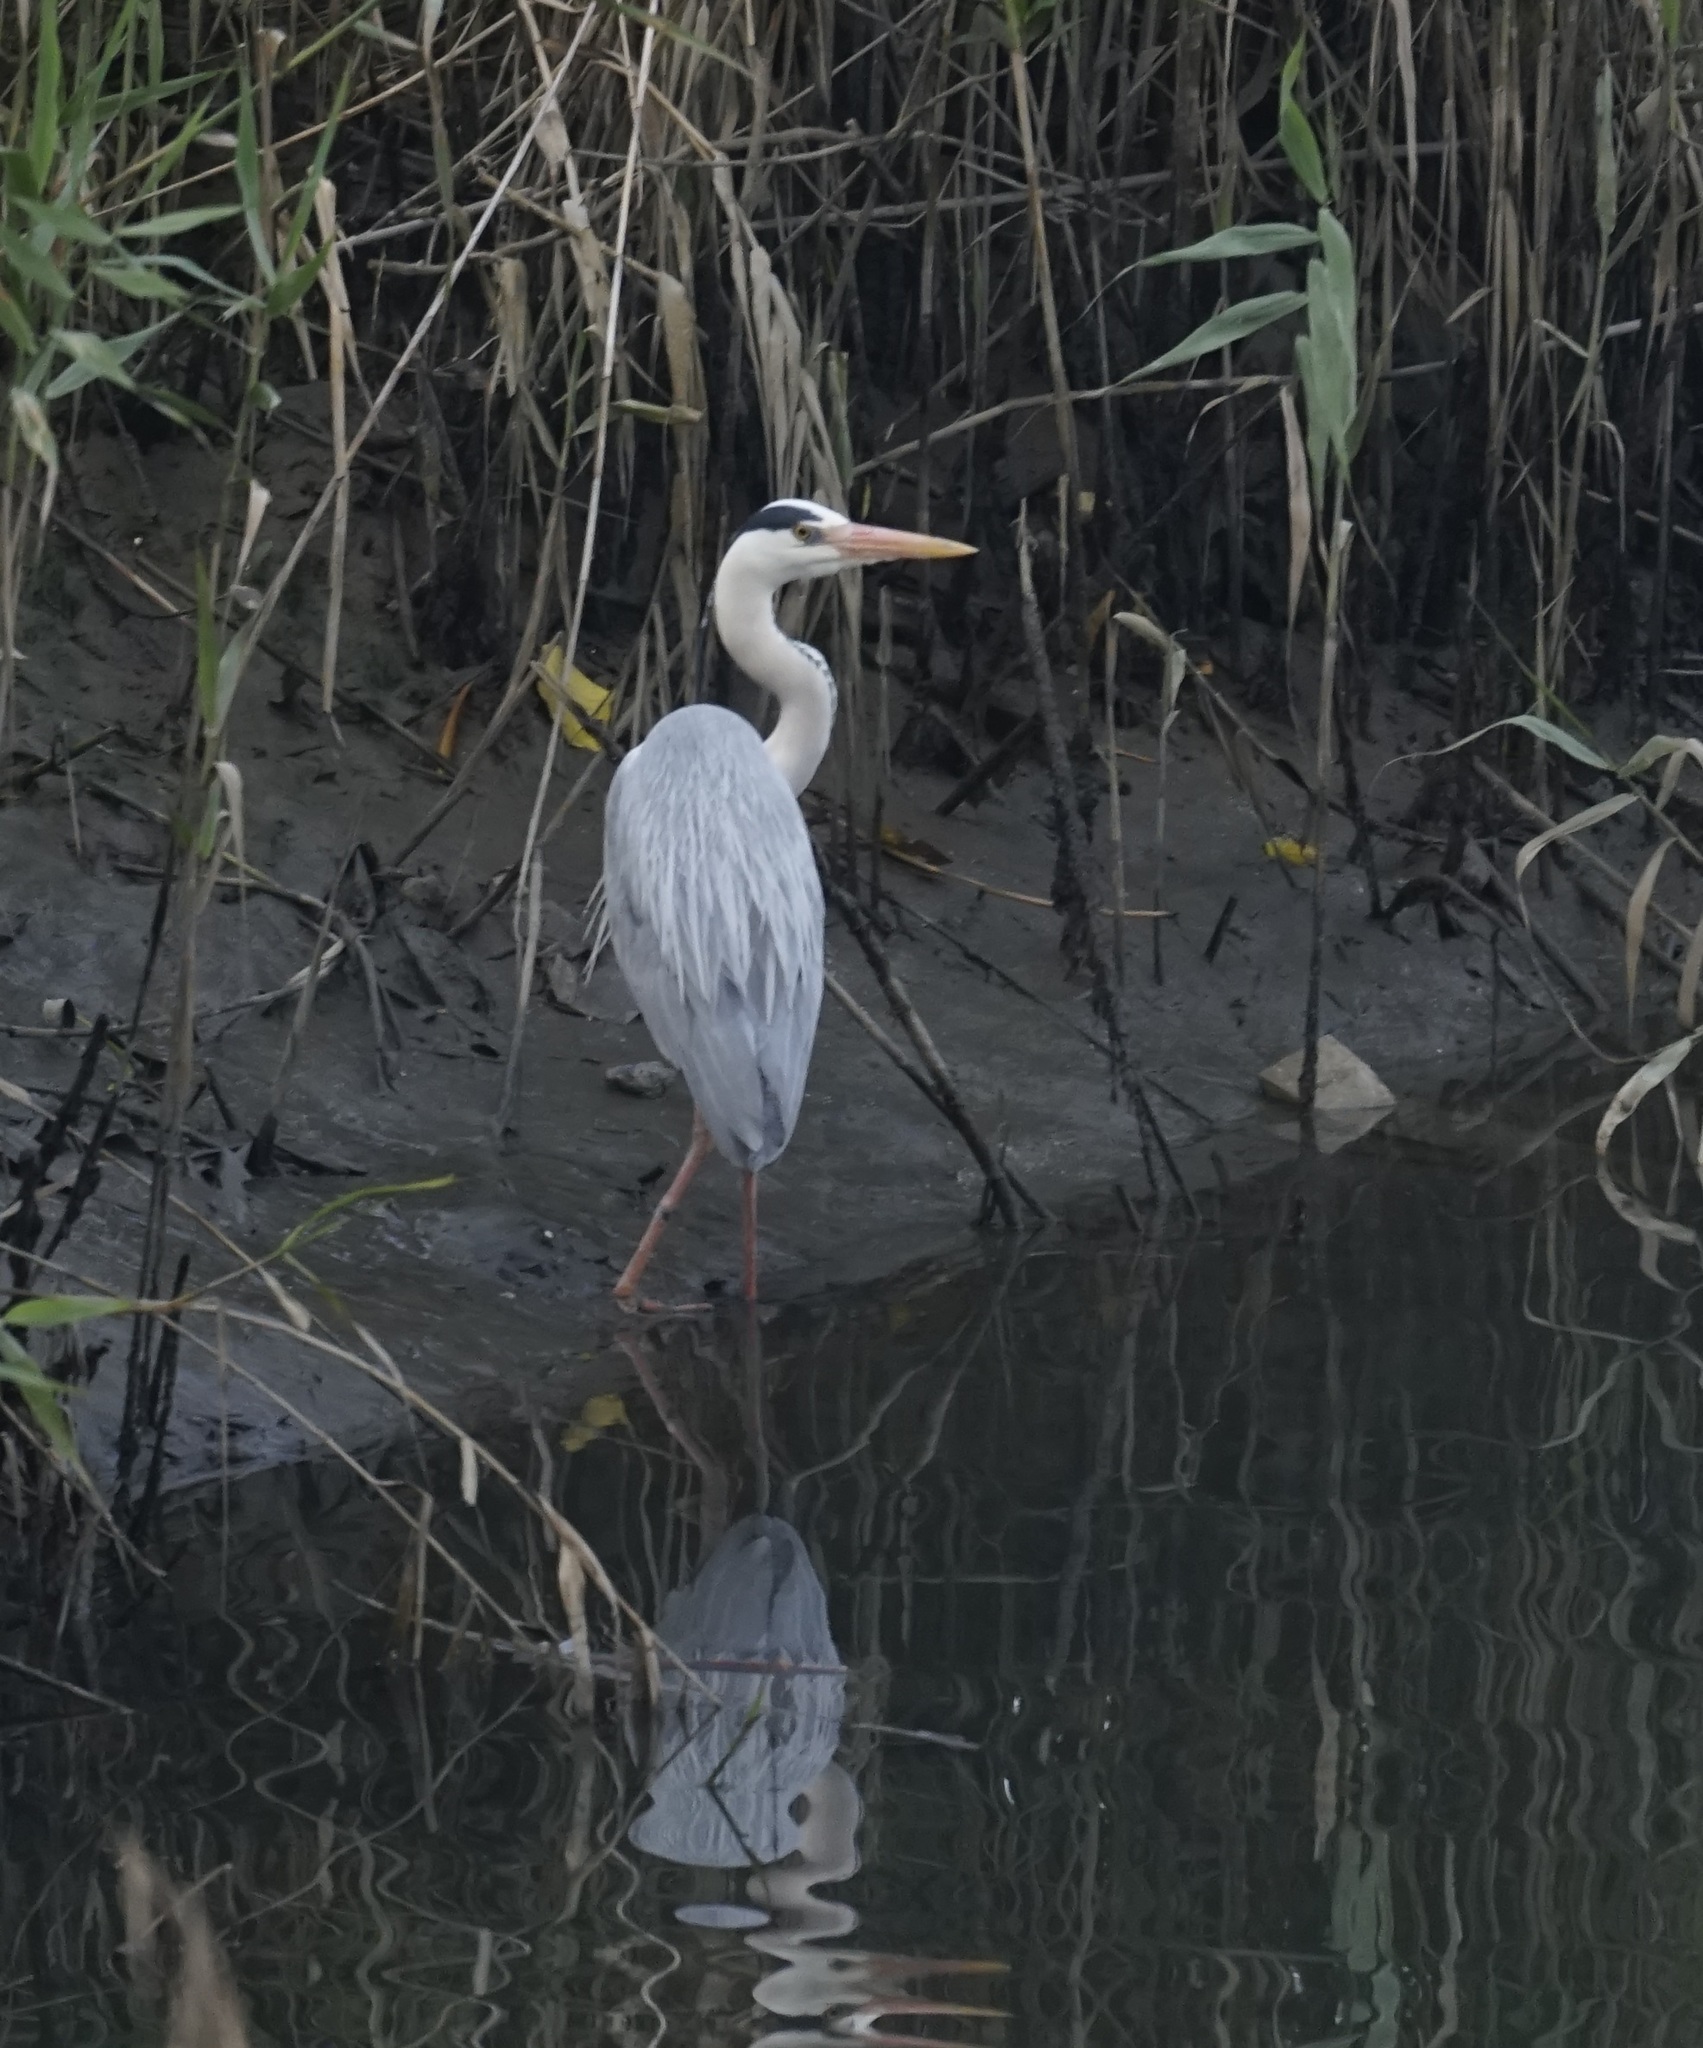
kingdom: Animalia
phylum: Chordata
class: Aves
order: Pelecaniformes
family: Ardeidae
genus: Ardea
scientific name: Ardea cinerea
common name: Grey heron
